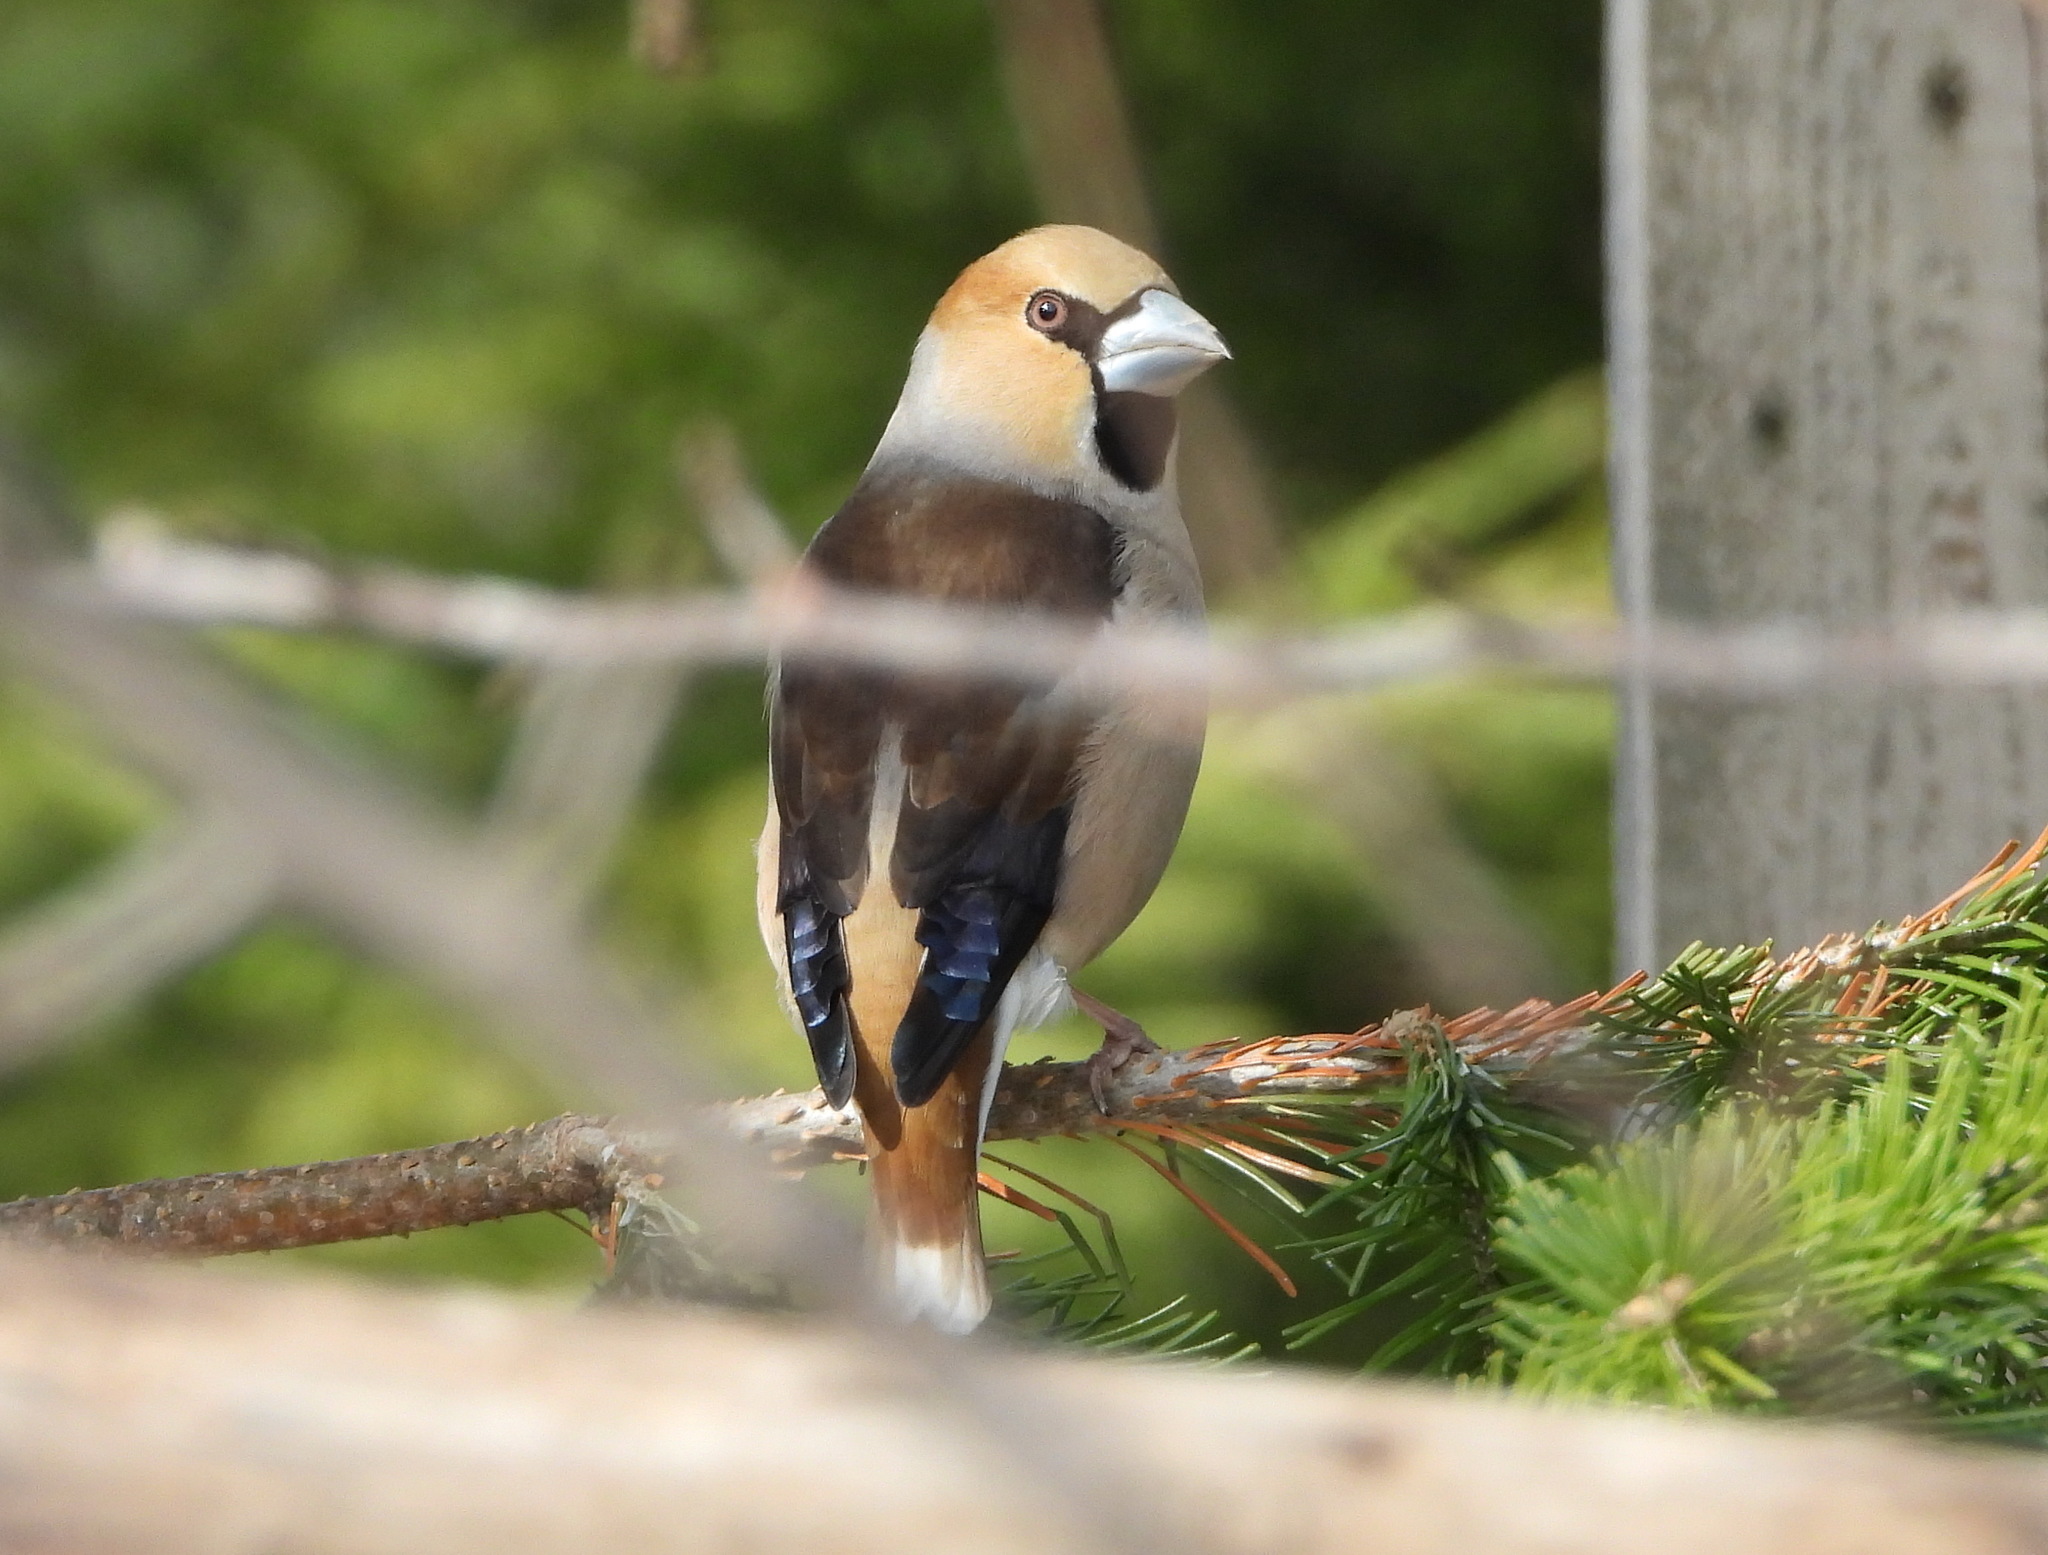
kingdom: Animalia
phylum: Chordata
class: Aves
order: Passeriformes
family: Fringillidae
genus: Coccothraustes
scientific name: Coccothraustes coccothraustes
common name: Hawfinch
